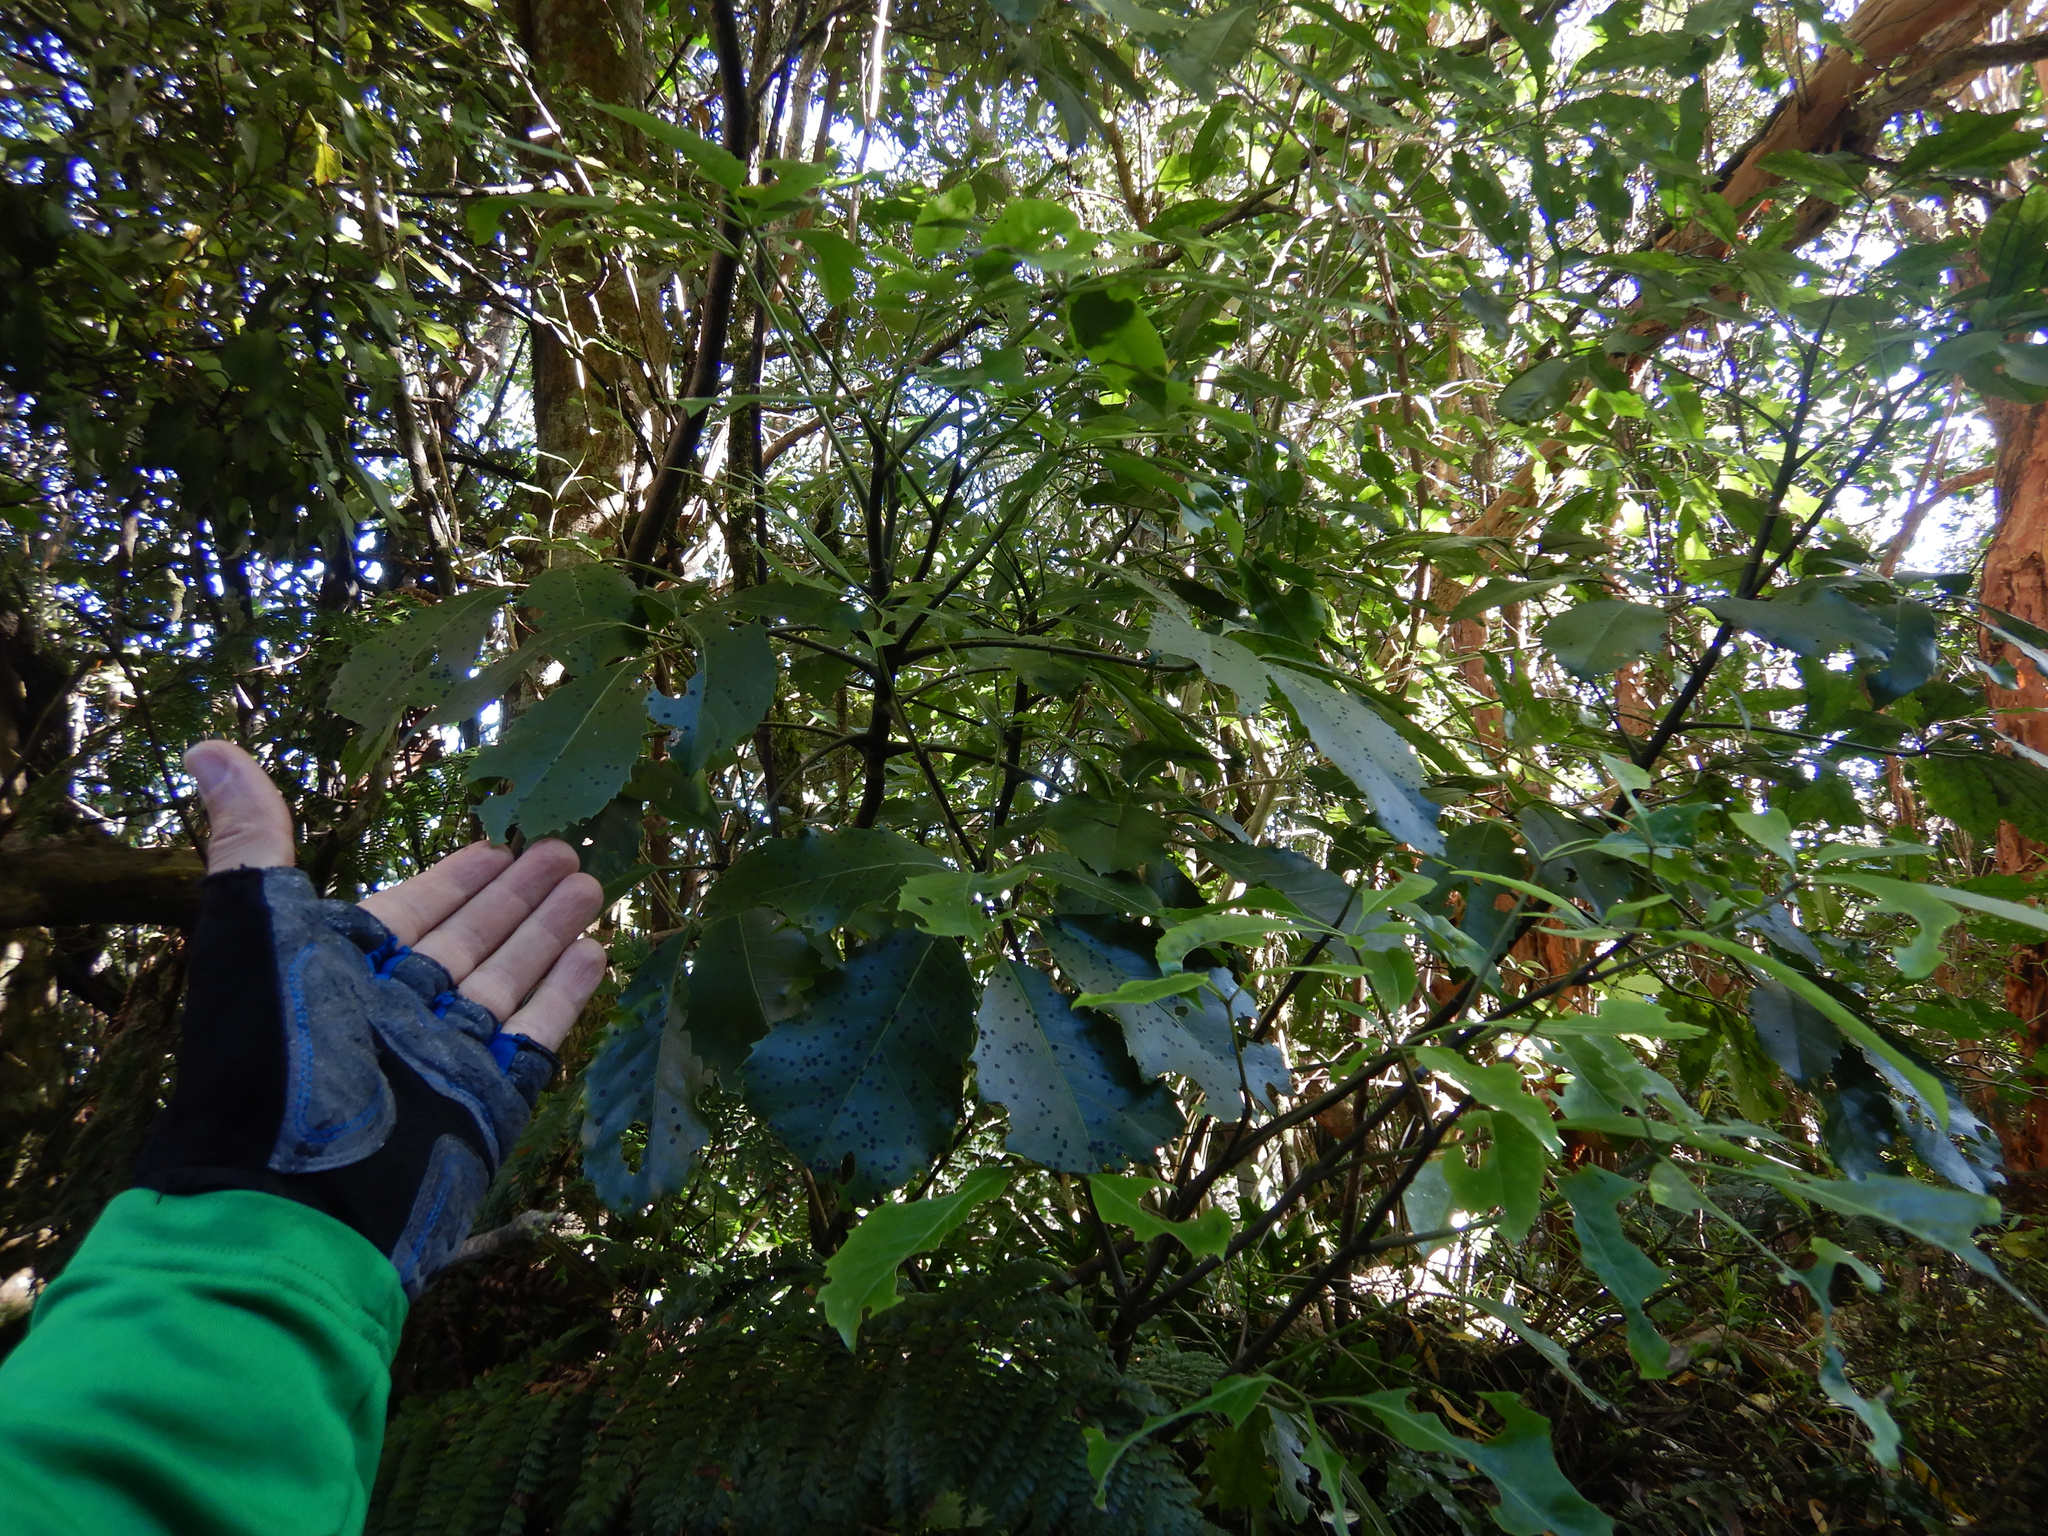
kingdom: Plantae
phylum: Tracheophyta
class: Magnoliopsida
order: Apiales
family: Araliaceae
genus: Neopanax
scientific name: Neopanax arboreus
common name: Five-fingers
